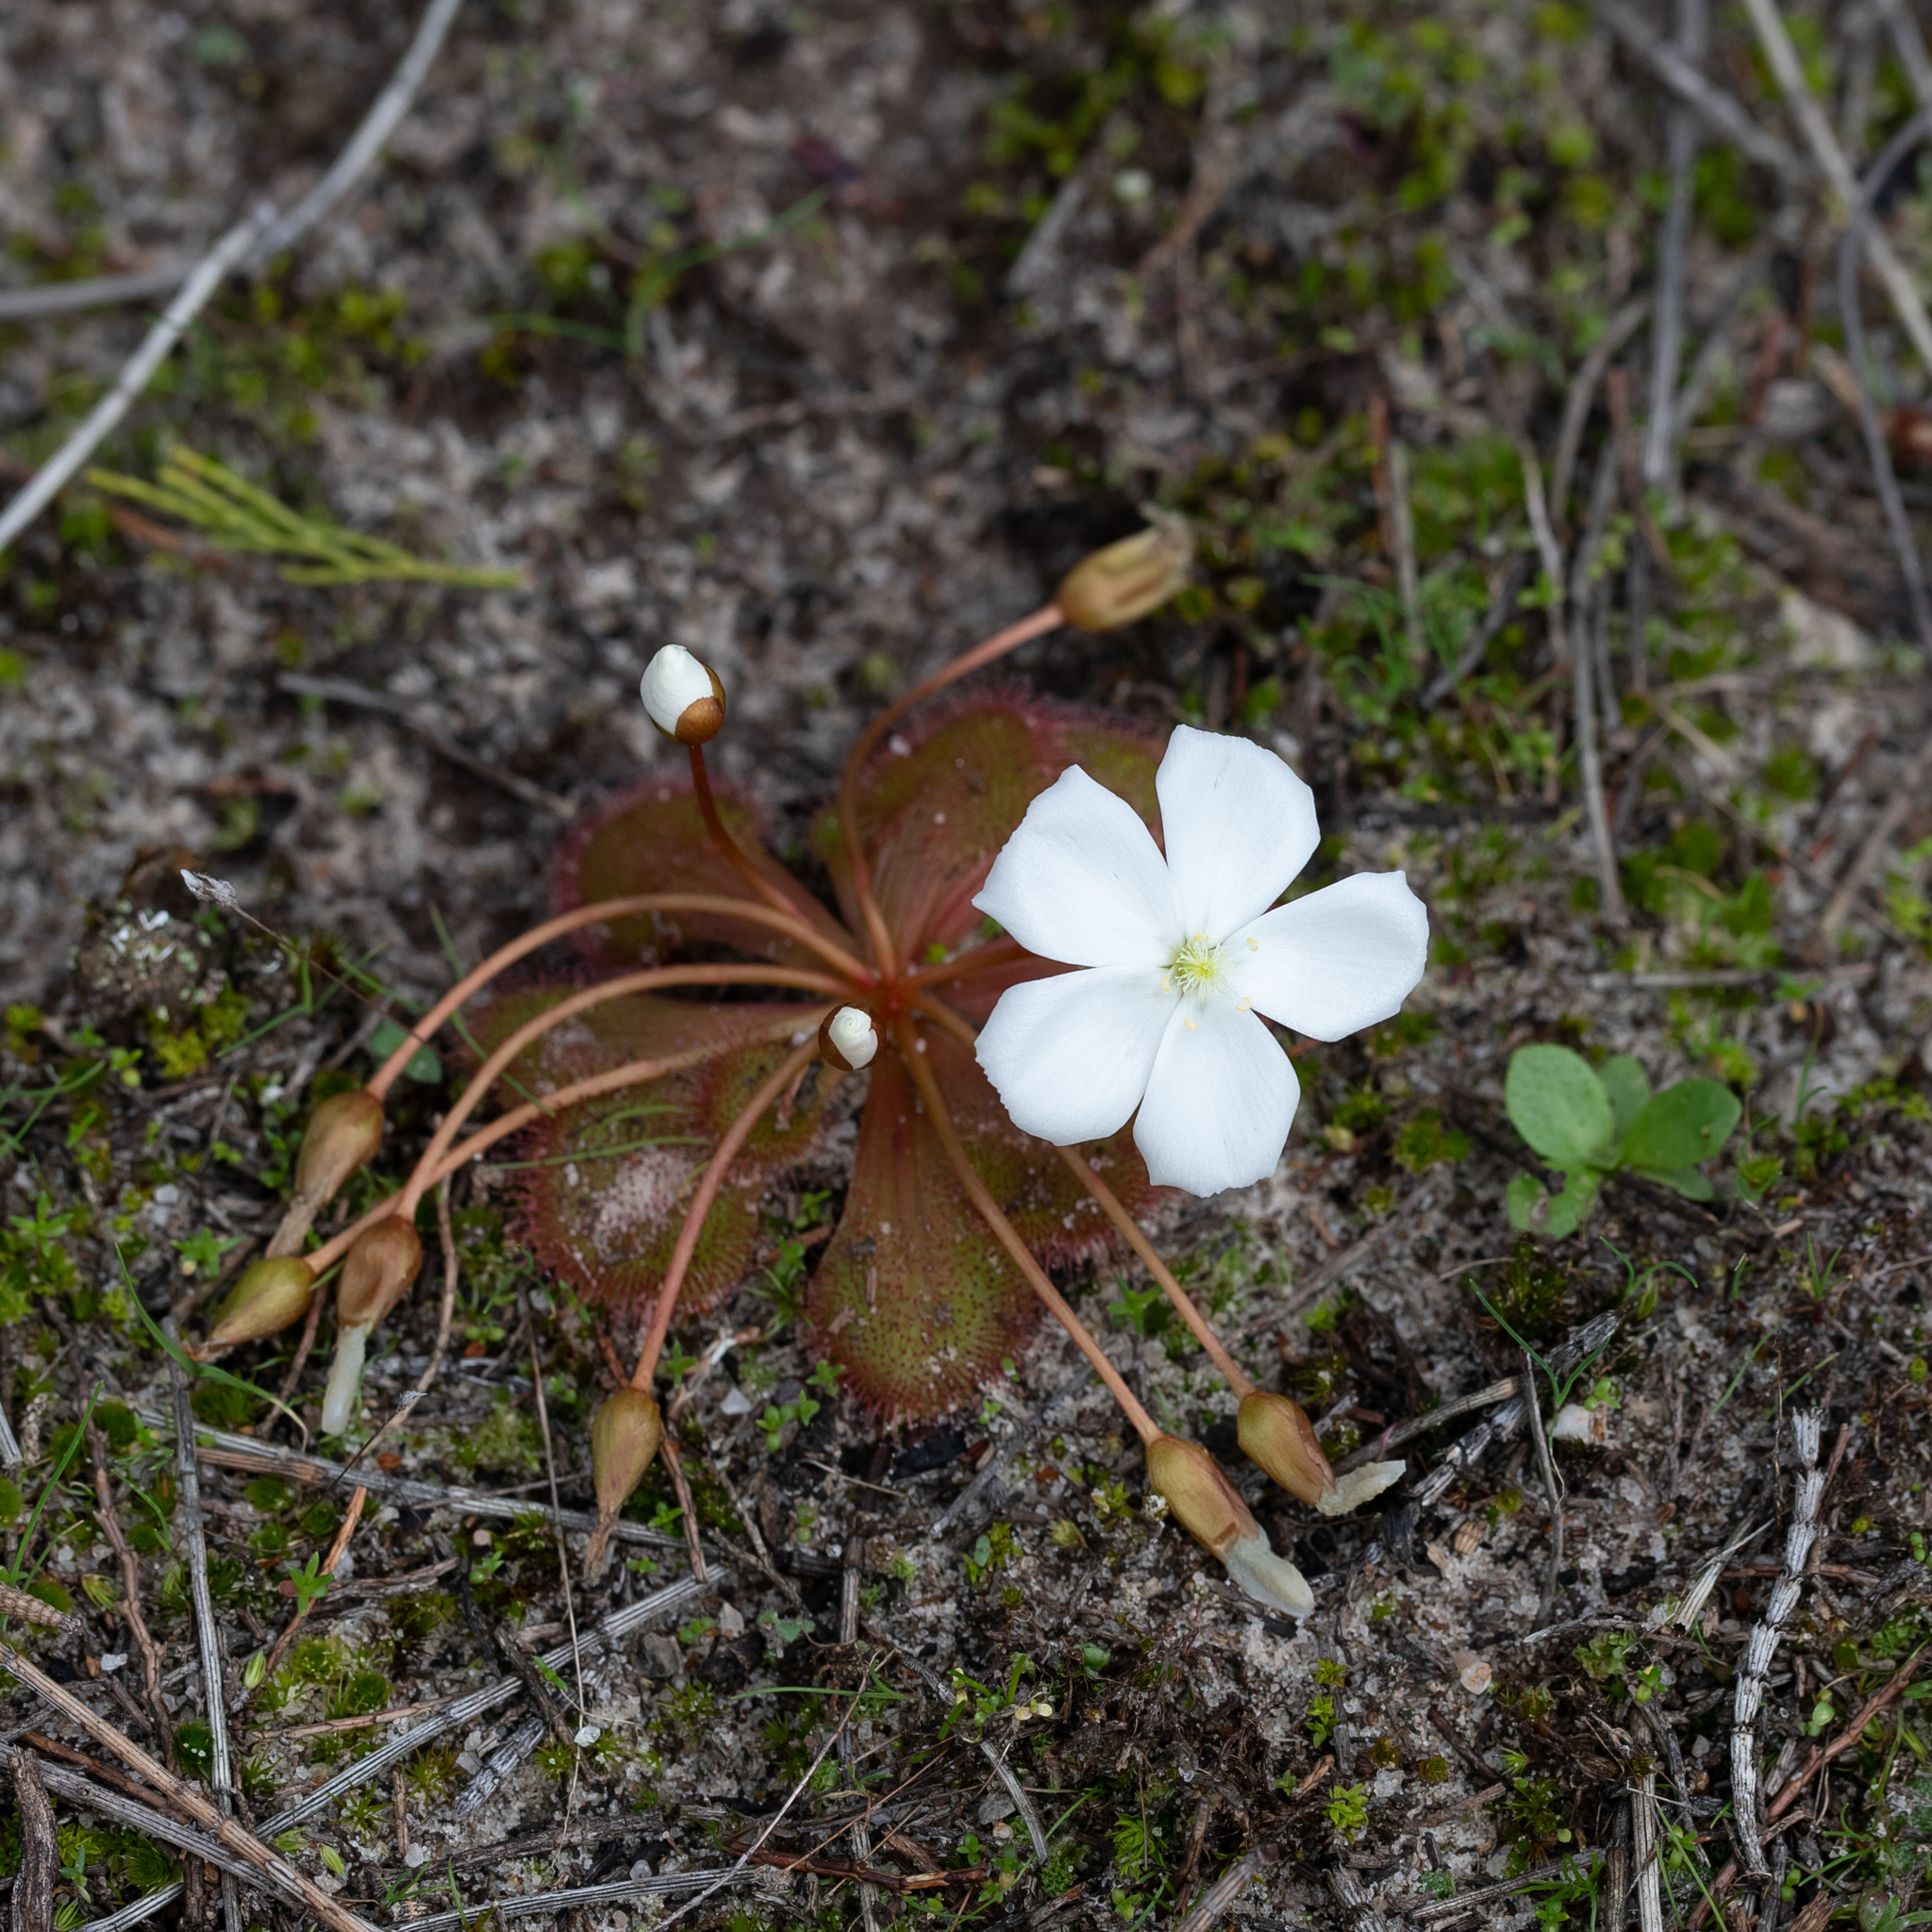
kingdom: Plantae
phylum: Tracheophyta
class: Magnoliopsida
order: Caryophyllales
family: Droseraceae
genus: Drosera
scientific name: Drosera whittakeri
